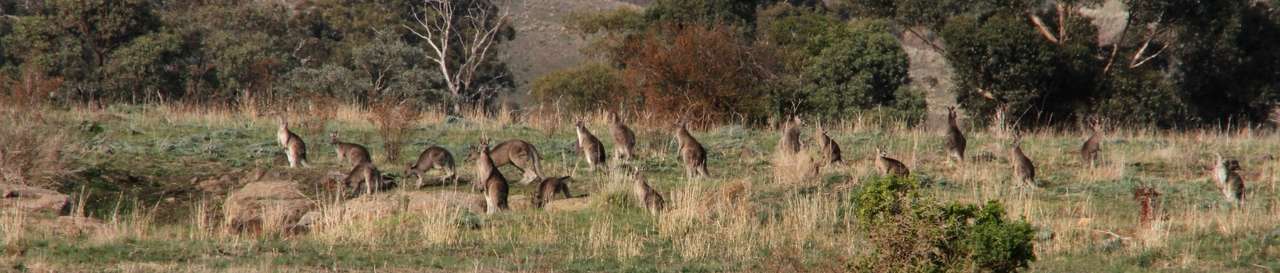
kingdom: Animalia
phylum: Chordata
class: Mammalia
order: Diprotodontia
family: Macropodidae
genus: Macropus
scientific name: Macropus giganteus
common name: Eastern grey kangaroo
